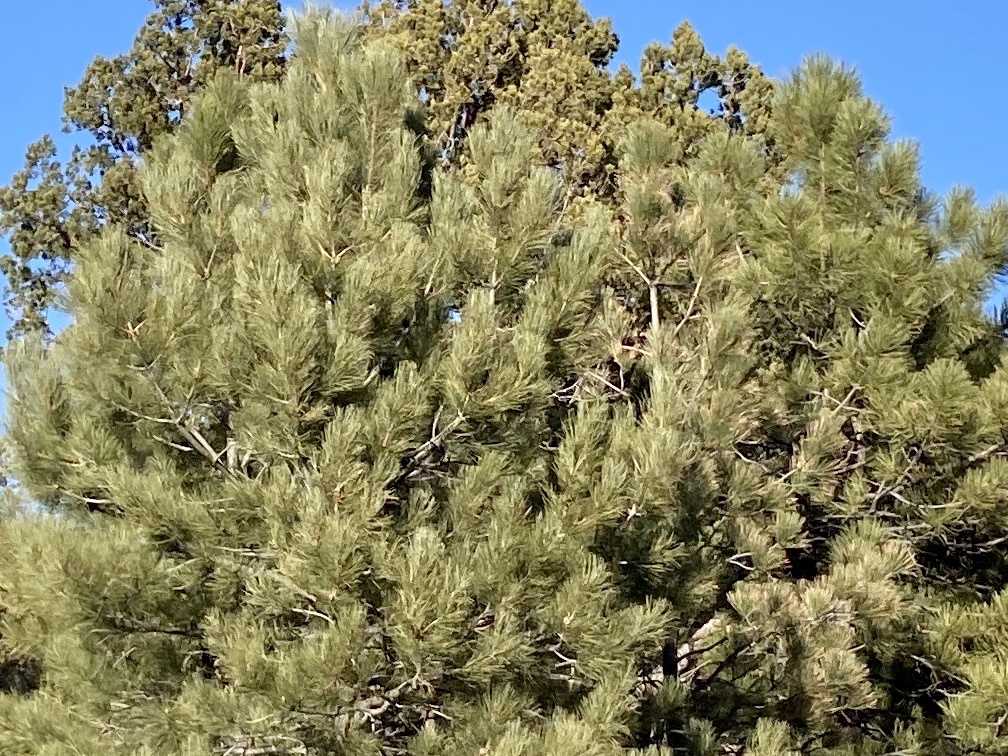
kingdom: Plantae
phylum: Tracheophyta
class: Pinopsida
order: Pinales
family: Pinaceae
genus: Pinus
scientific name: Pinus ponderosa
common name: Western yellow-pine
